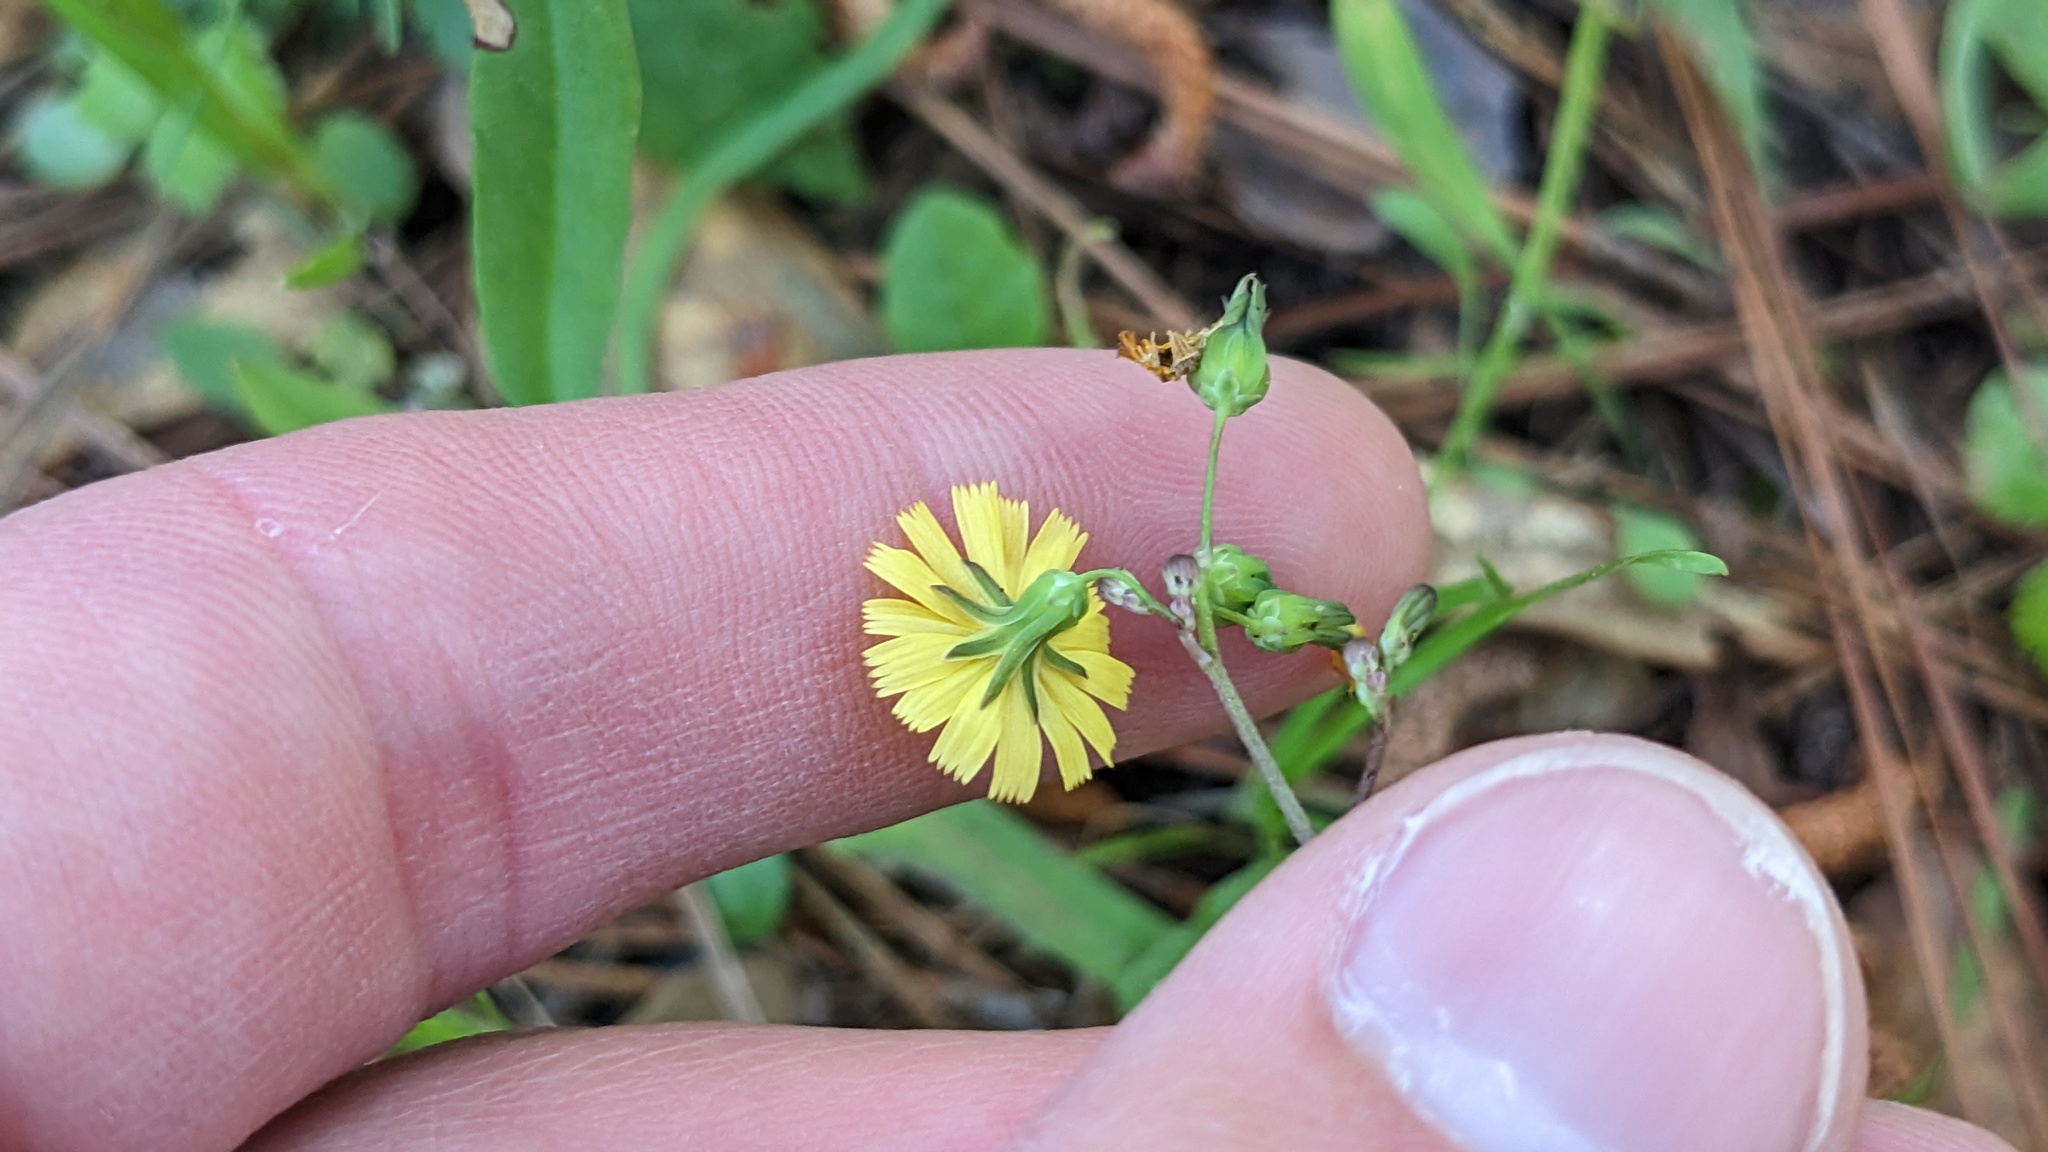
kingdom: Plantae
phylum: Tracheophyta
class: Magnoliopsida
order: Asterales
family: Asteraceae
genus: Youngia
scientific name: Youngia japonica
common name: Oriental false hawksbeard
